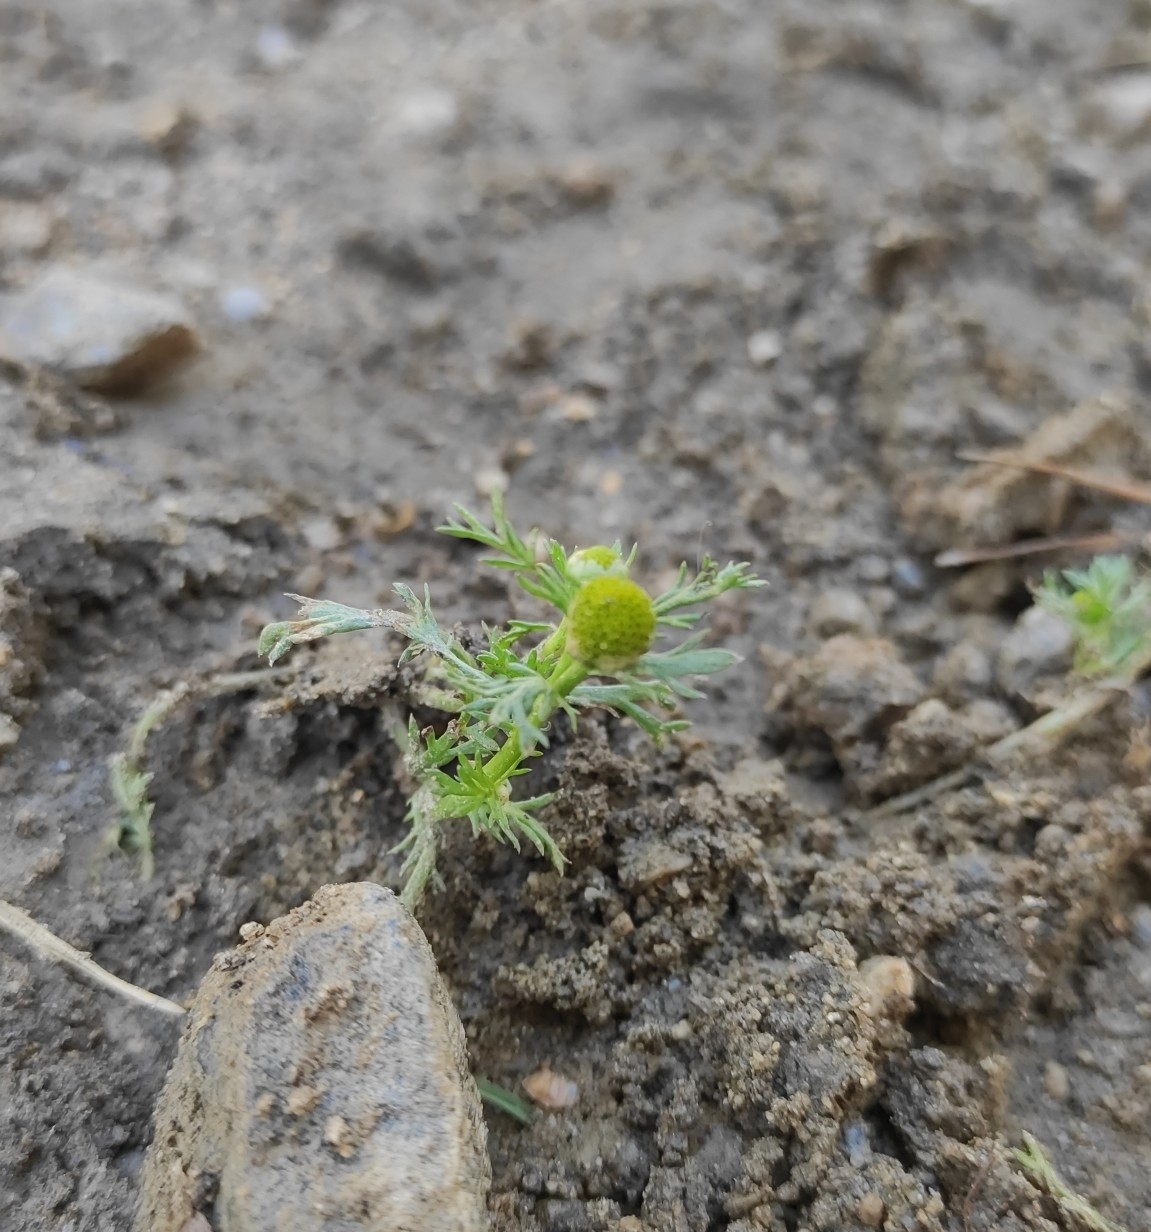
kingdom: Plantae
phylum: Tracheophyta
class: Magnoliopsida
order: Asterales
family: Asteraceae
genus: Matricaria
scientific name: Matricaria discoidea
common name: Disc mayweed
